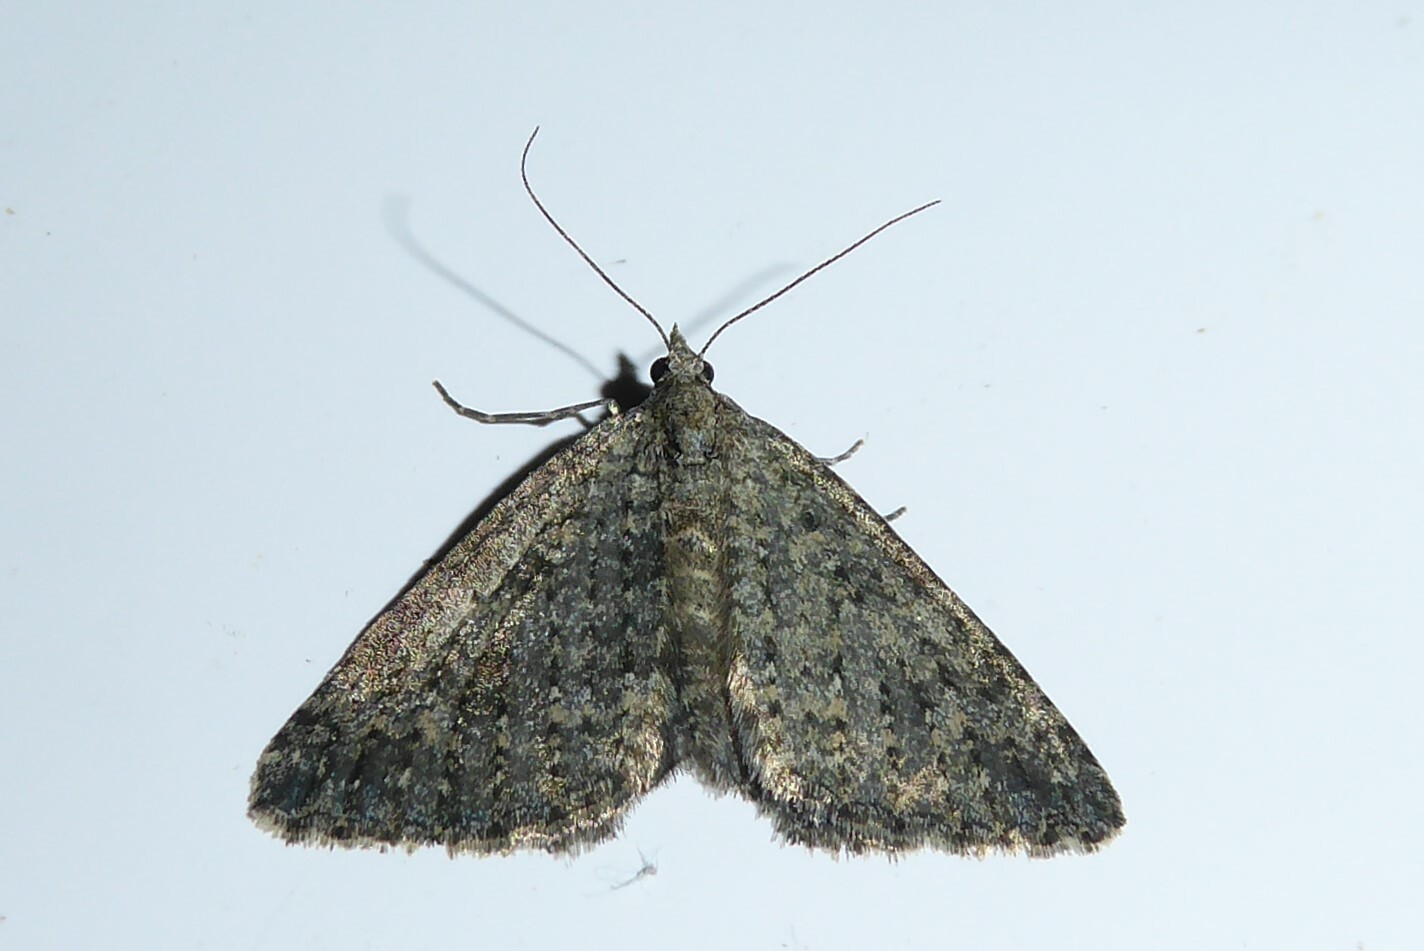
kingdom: Animalia
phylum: Arthropoda
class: Insecta
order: Lepidoptera
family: Geometridae
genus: Helastia
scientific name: Helastia corcularia
